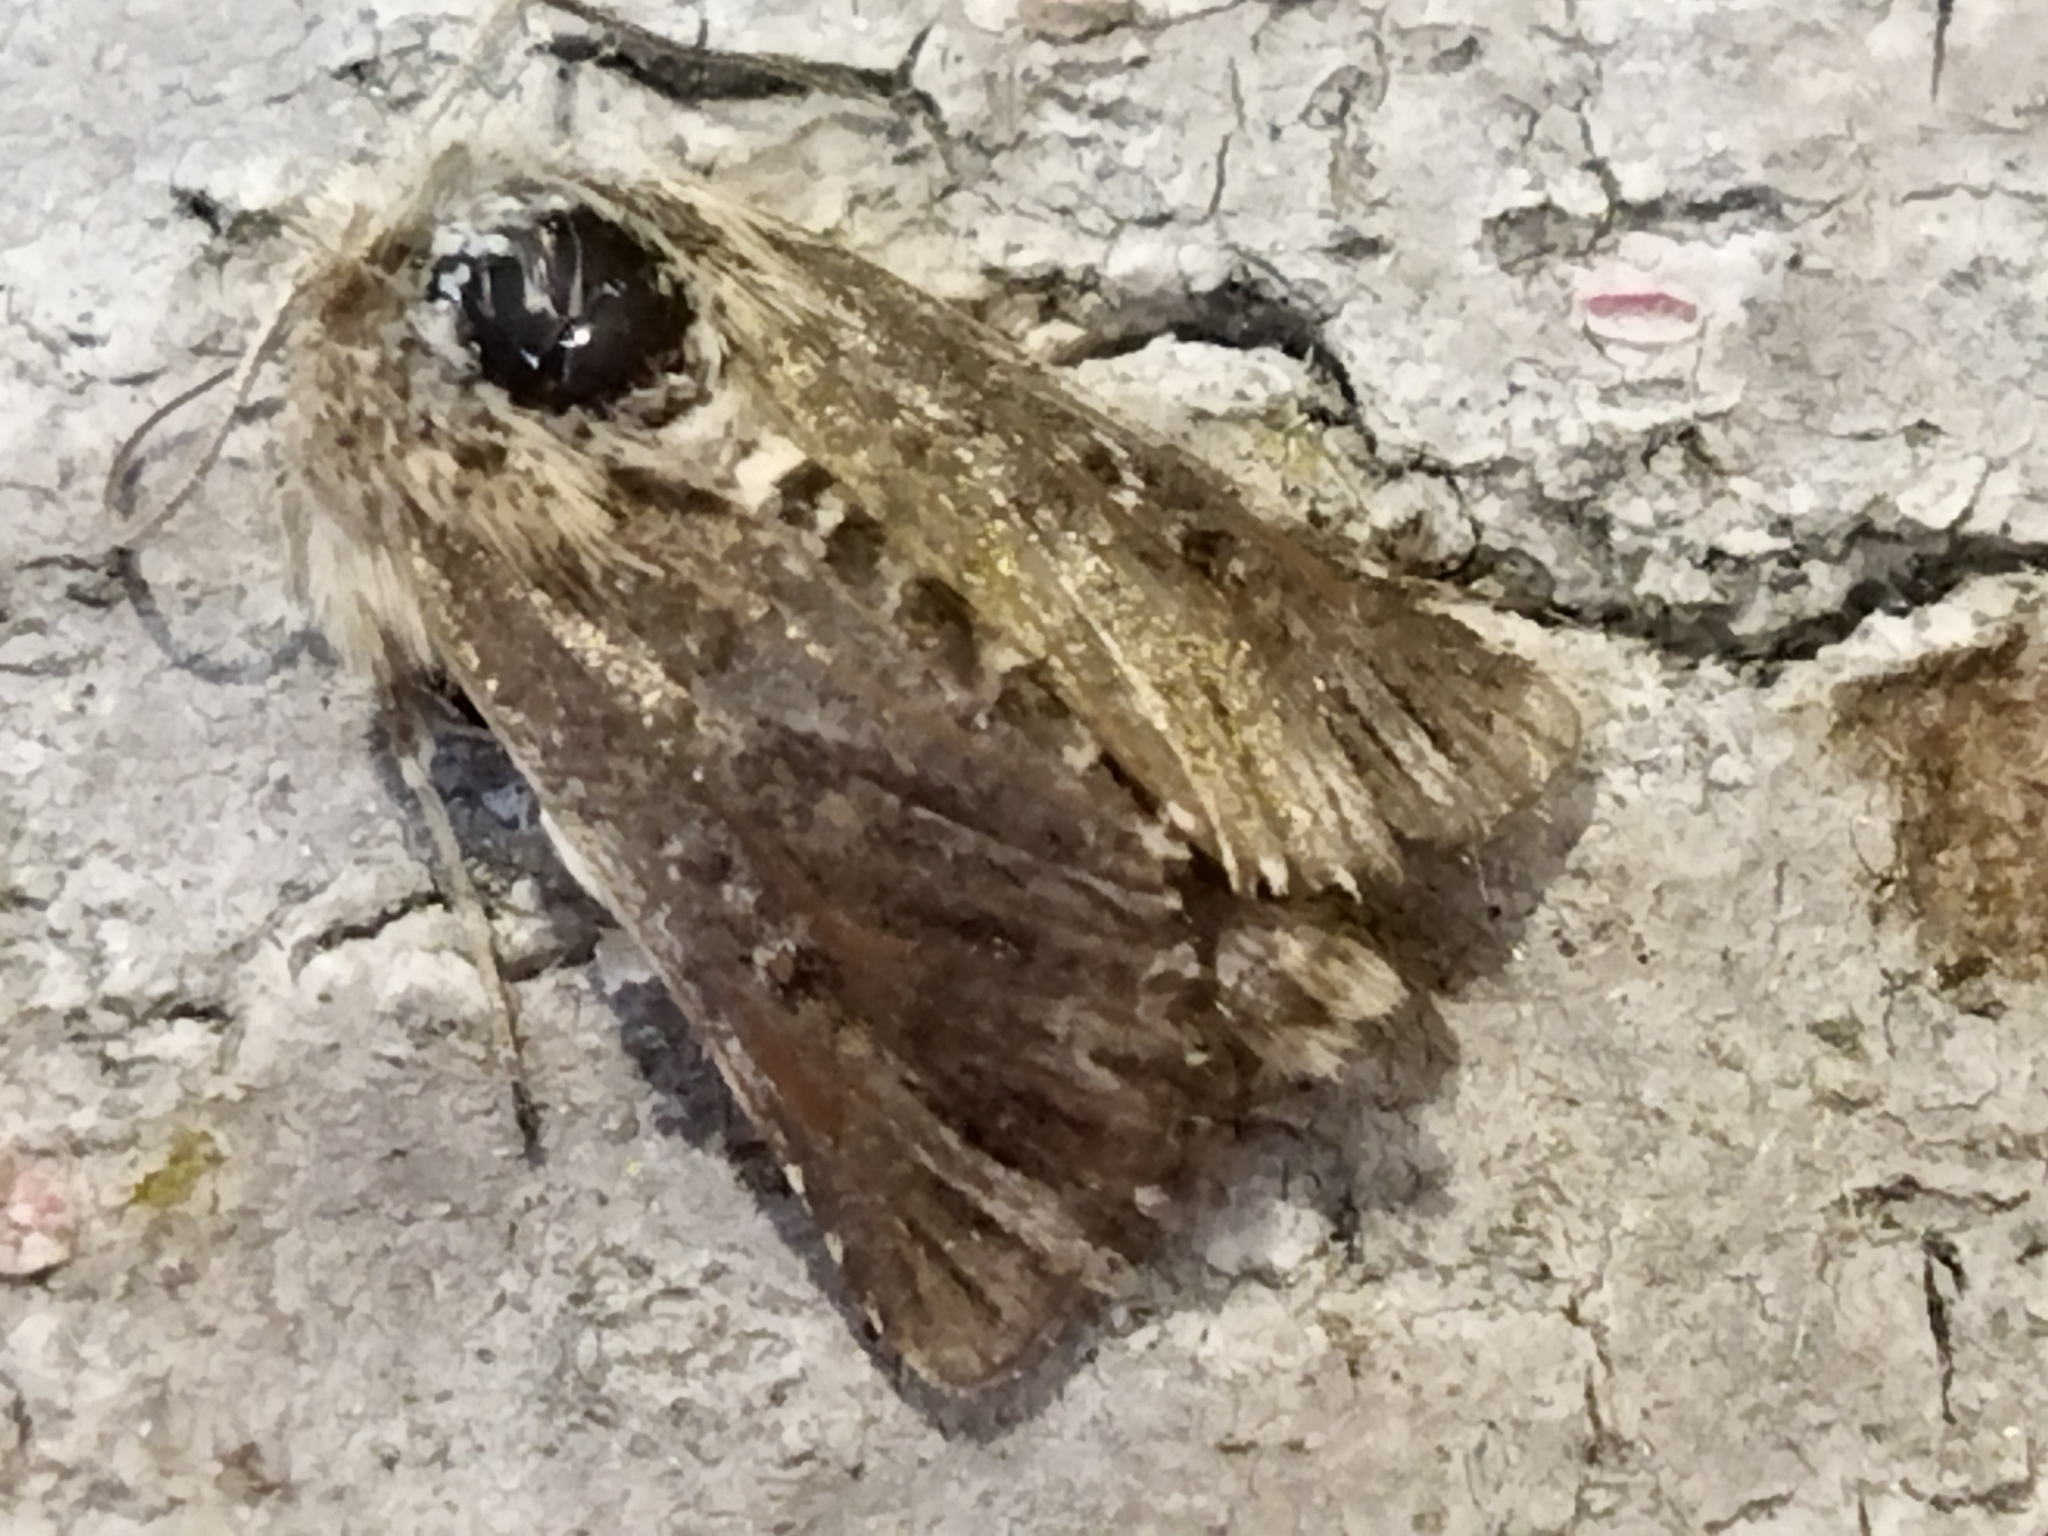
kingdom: Animalia
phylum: Arthropoda
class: Insecta
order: Lepidoptera
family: Noctuidae
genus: Omphalophana
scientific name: Omphalophana antirrhinii
